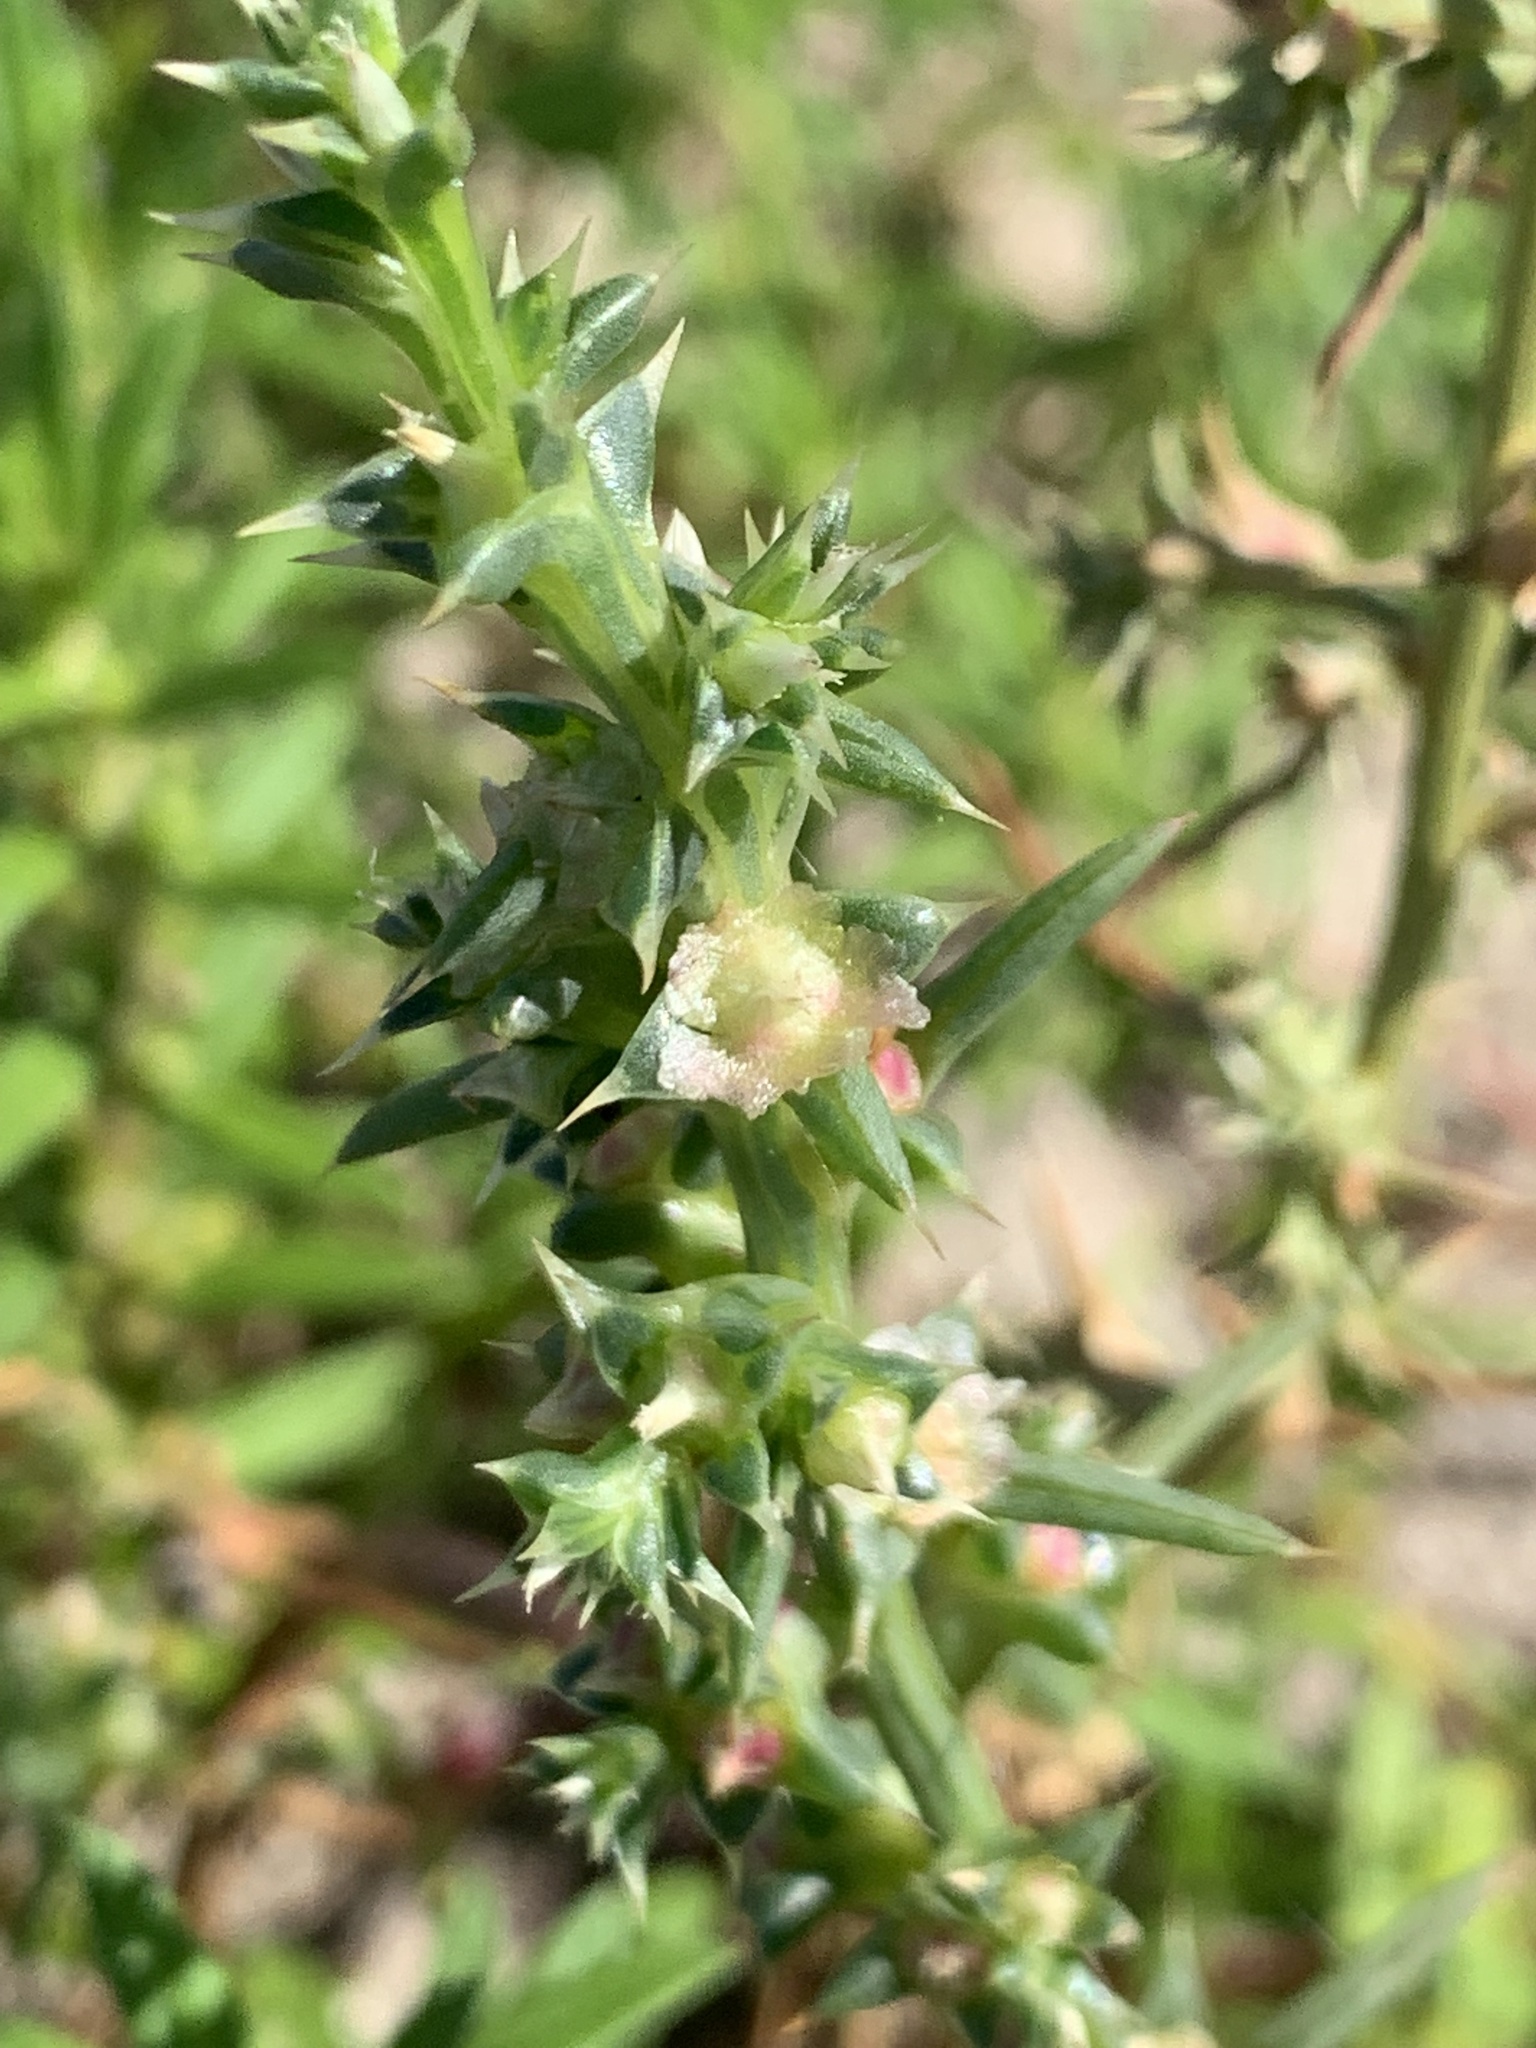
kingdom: Plantae
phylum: Tracheophyta
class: Magnoliopsida
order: Caryophyllales
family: Amaranthaceae
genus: Salsola
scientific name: Salsola kali
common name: Saltwort
